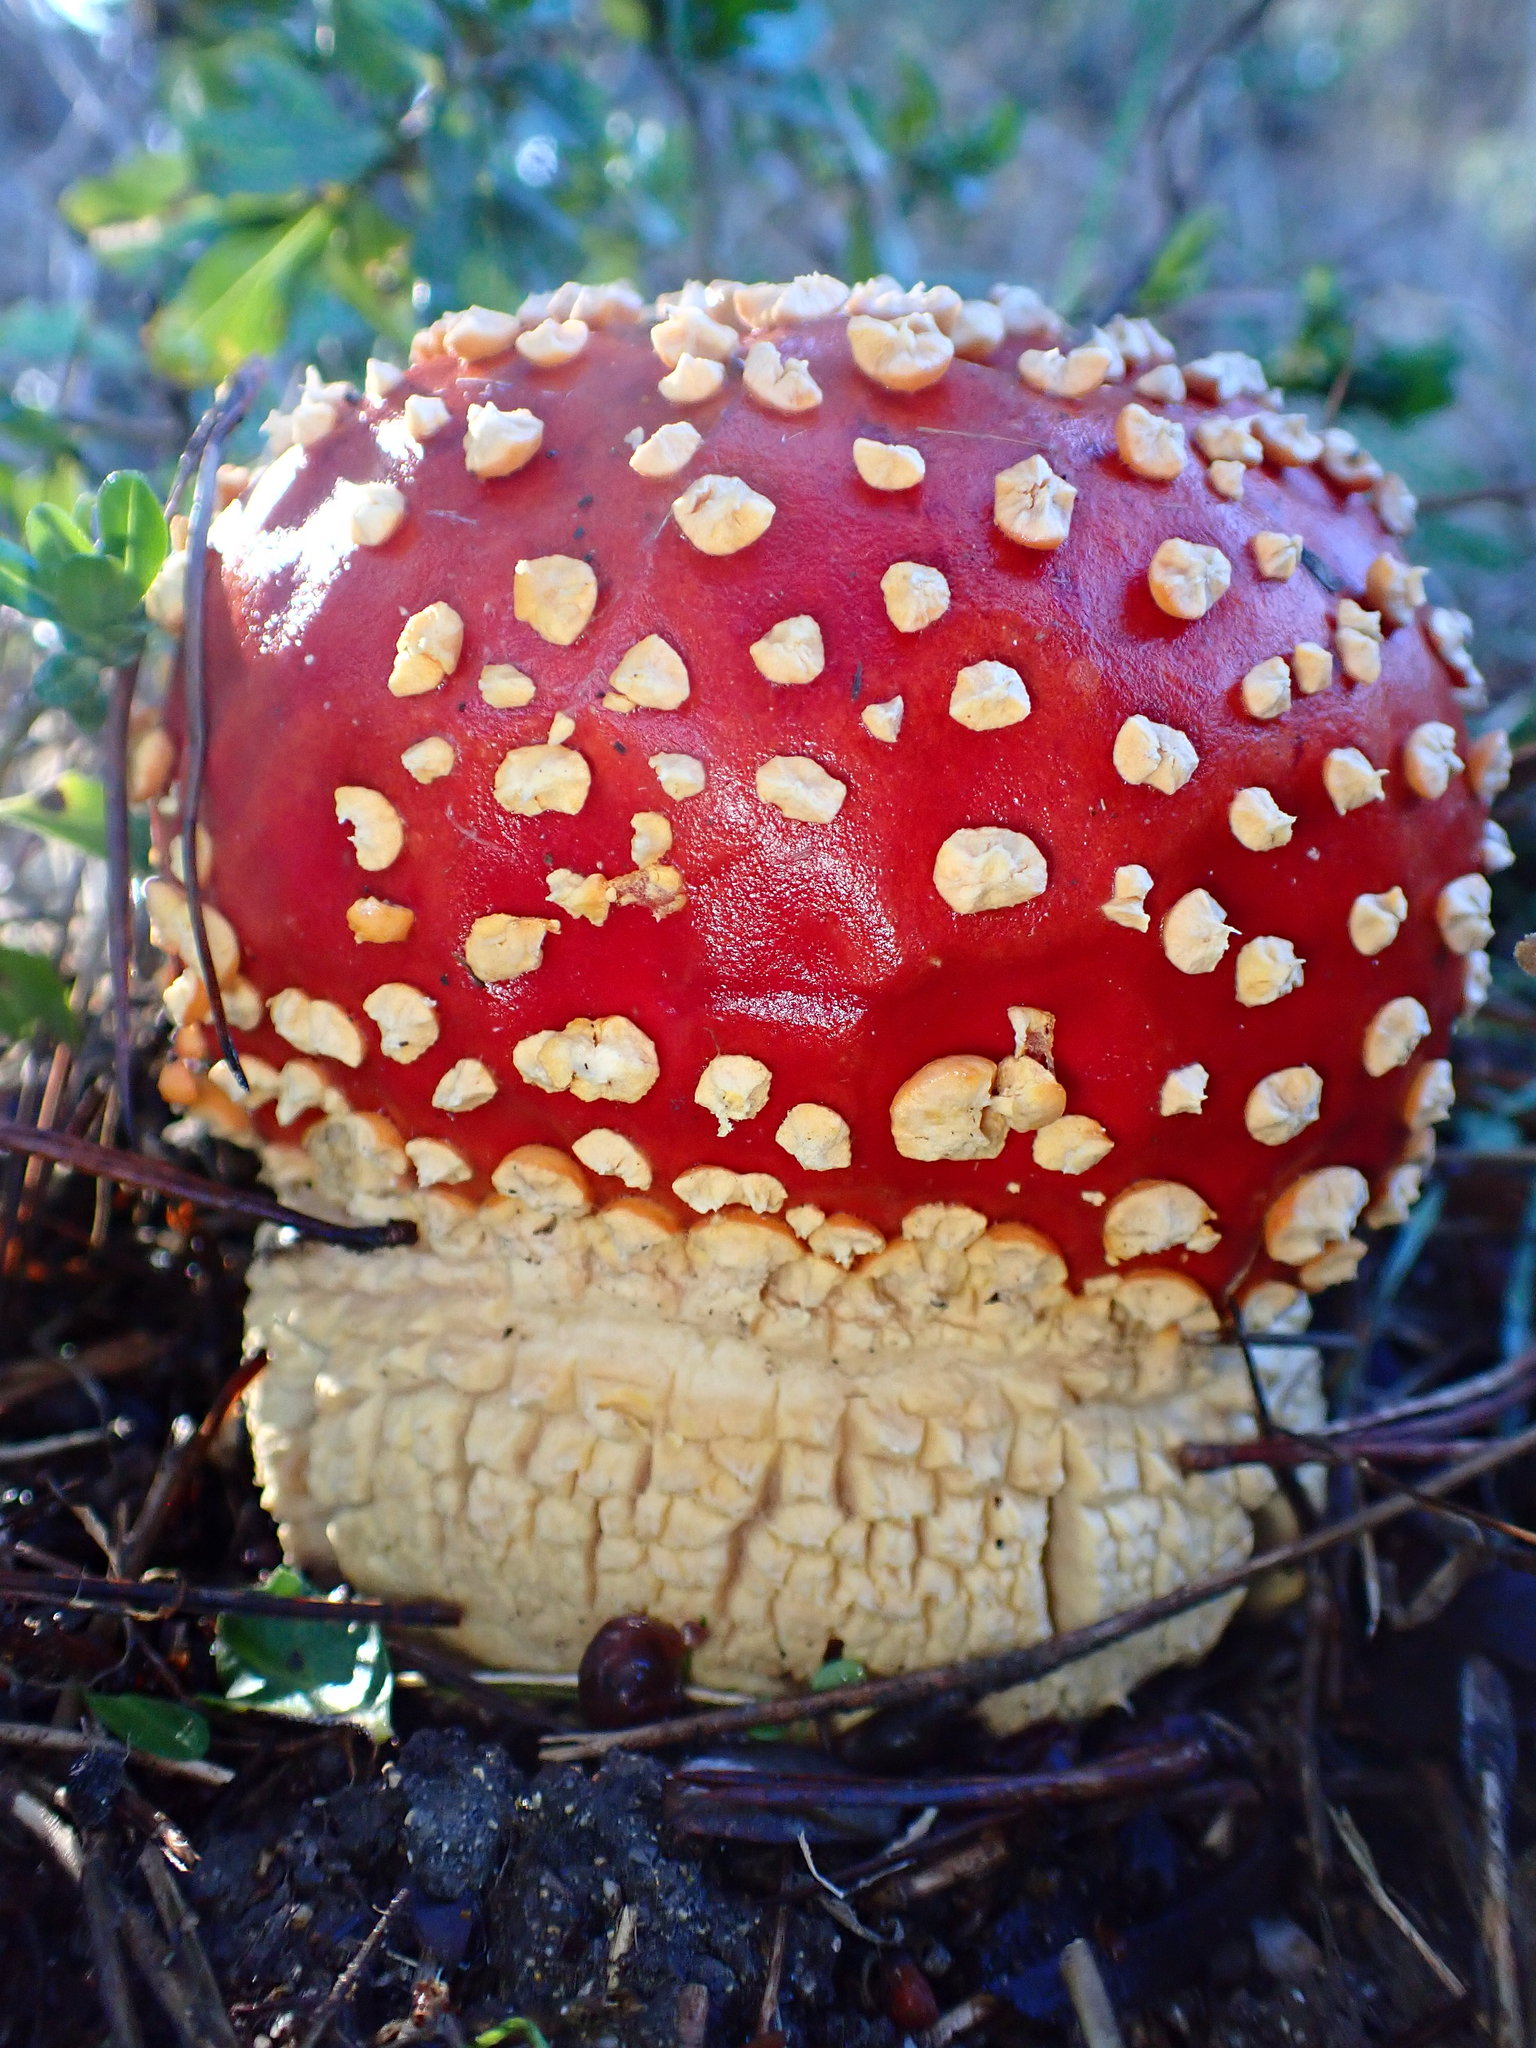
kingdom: Fungi
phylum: Basidiomycota
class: Agaricomycetes
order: Agaricales
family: Amanitaceae
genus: Amanita
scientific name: Amanita muscaria
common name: Fly agaric
